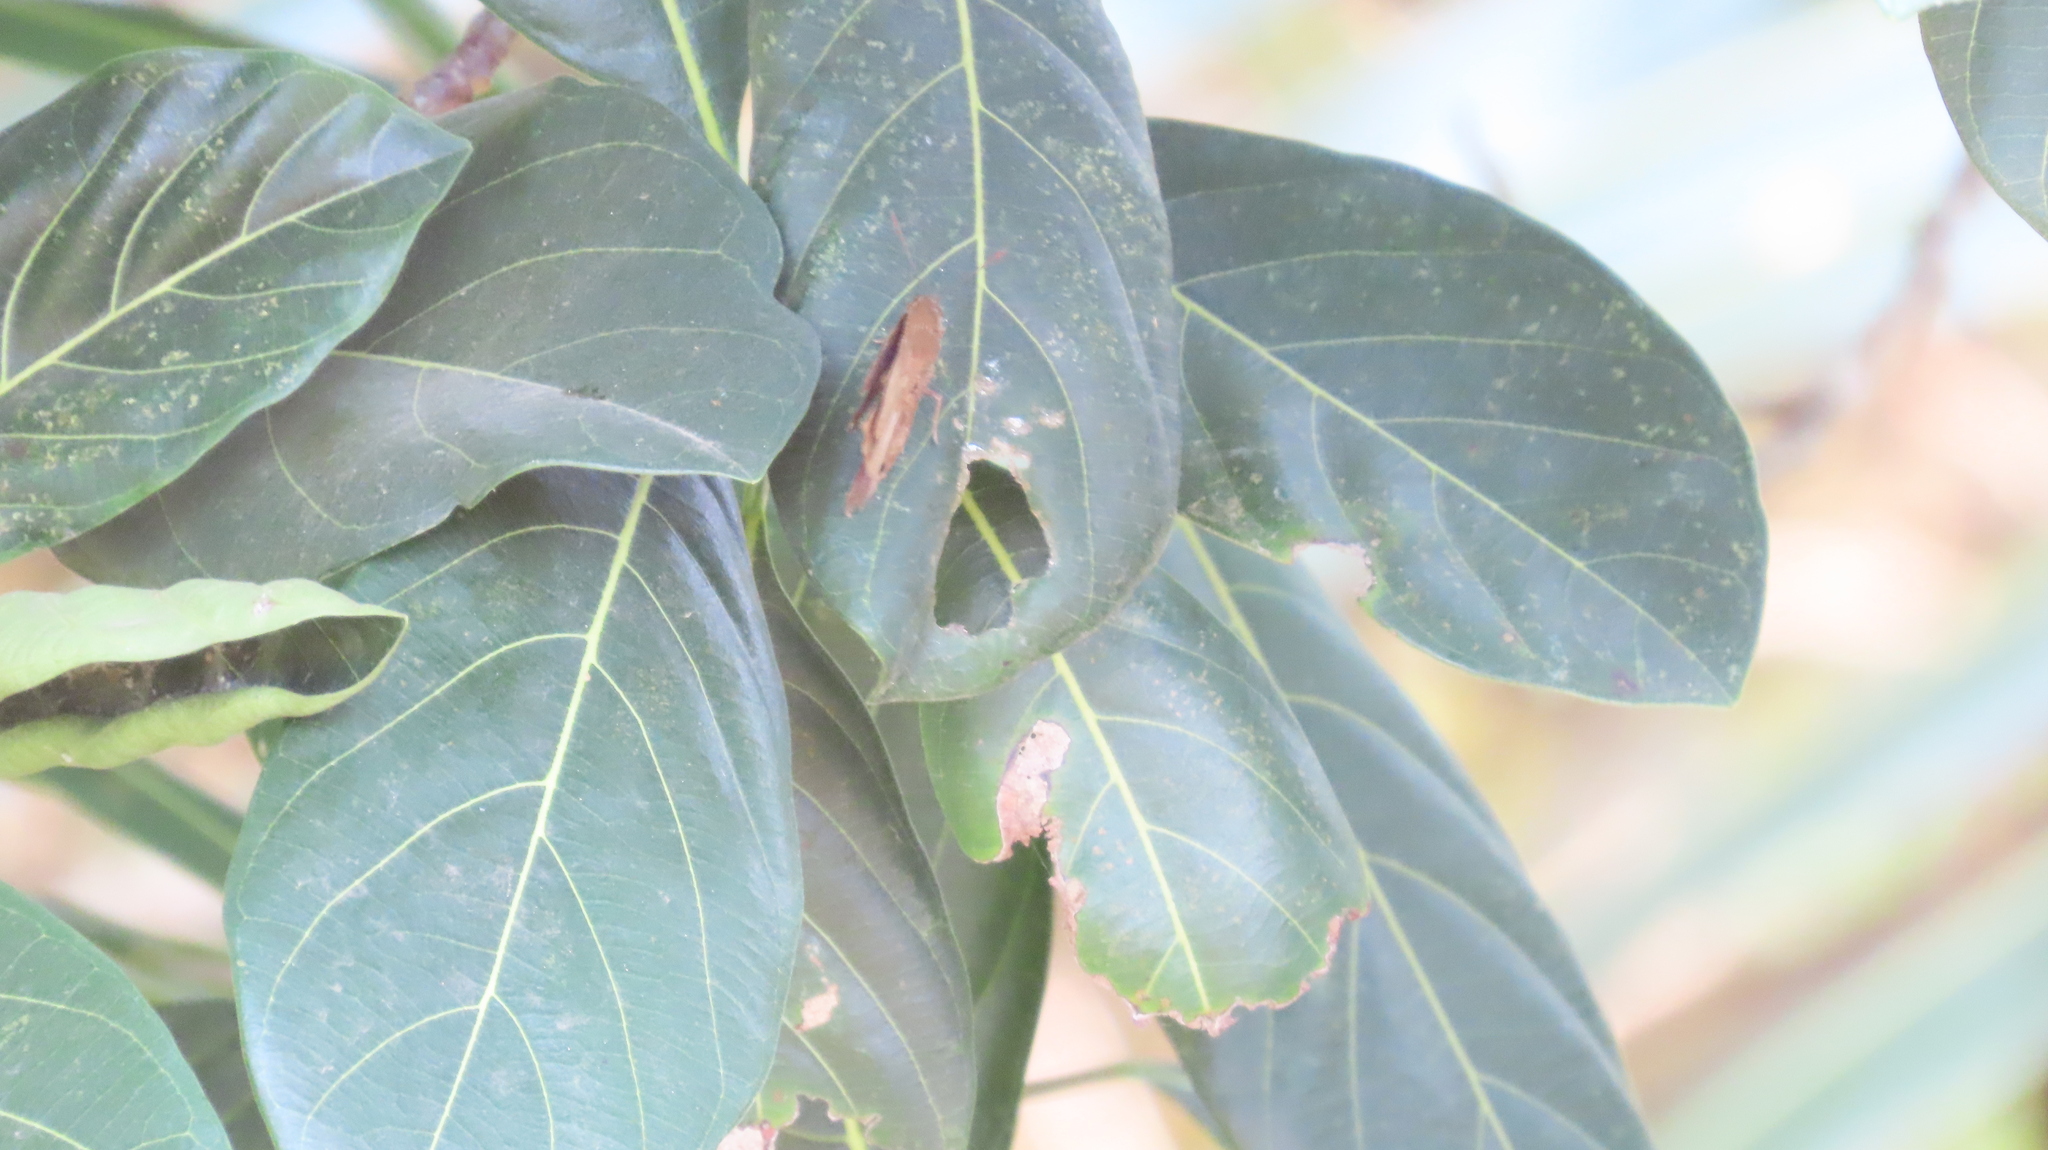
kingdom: Animalia
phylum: Arthropoda
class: Insecta
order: Lepidoptera
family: Lycaenidae
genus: Arhopala
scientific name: Arhopala centaurus
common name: Dull oak-blue
